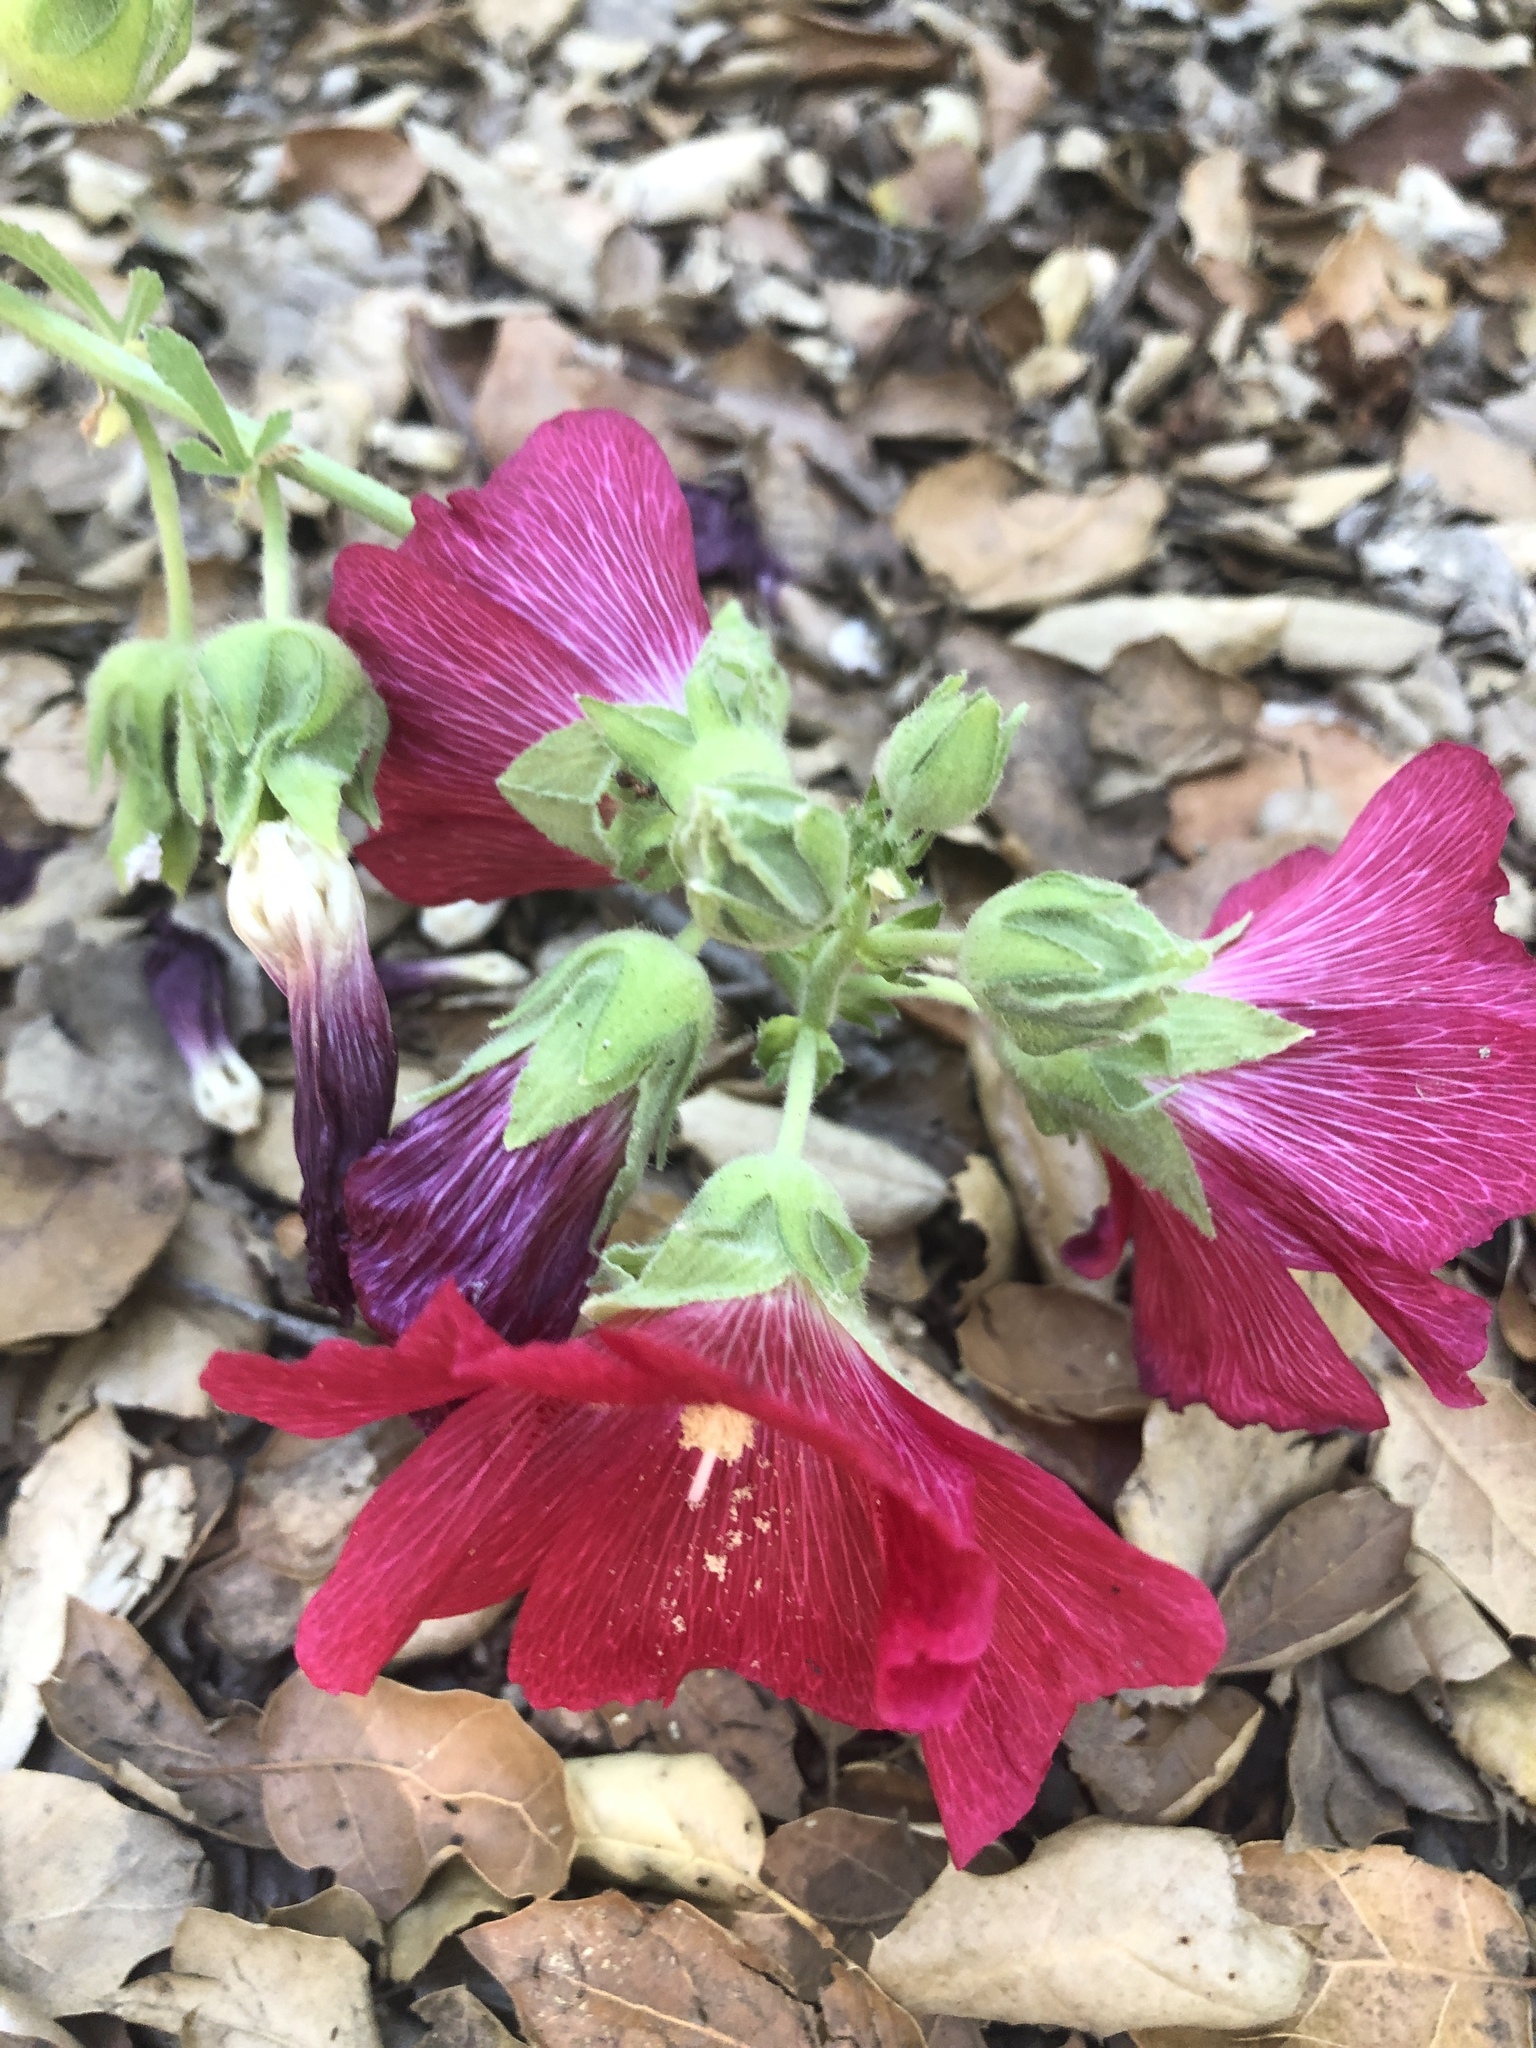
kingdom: Plantae
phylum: Tracheophyta
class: Magnoliopsida
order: Malvales
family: Malvaceae
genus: Alcea
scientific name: Alcea rosea
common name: Hollyhock
